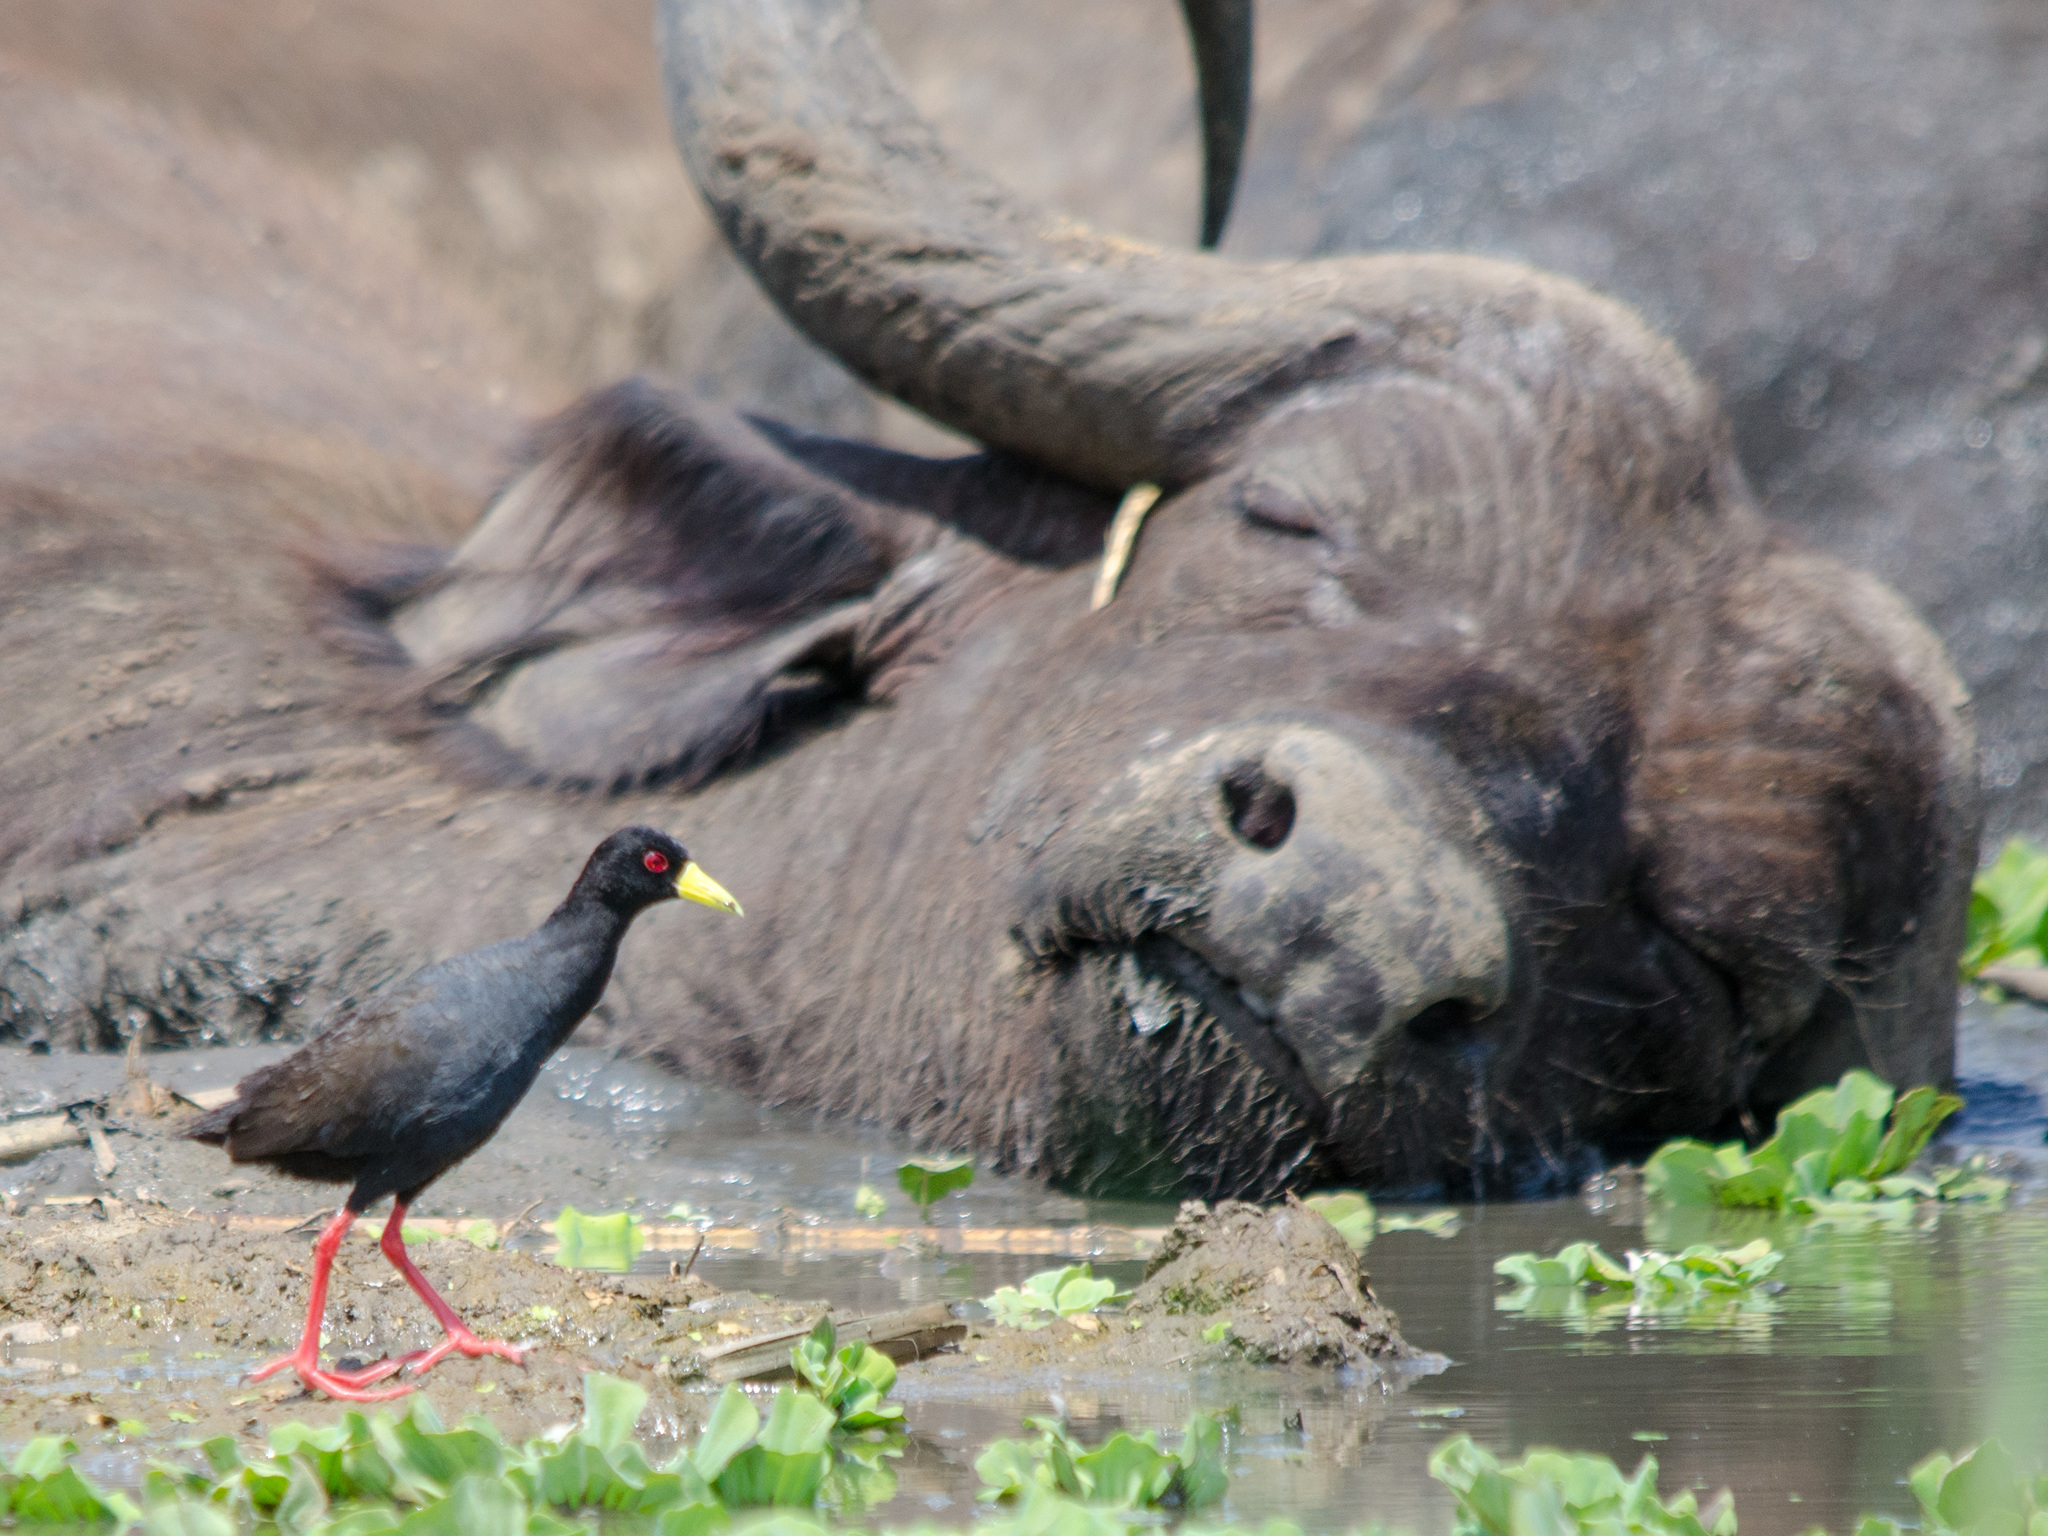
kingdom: Animalia
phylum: Chordata
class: Aves
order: Gruiformes
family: Rallidae
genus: Amaurornis
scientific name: Amaurornis flavirostra
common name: Black crake
